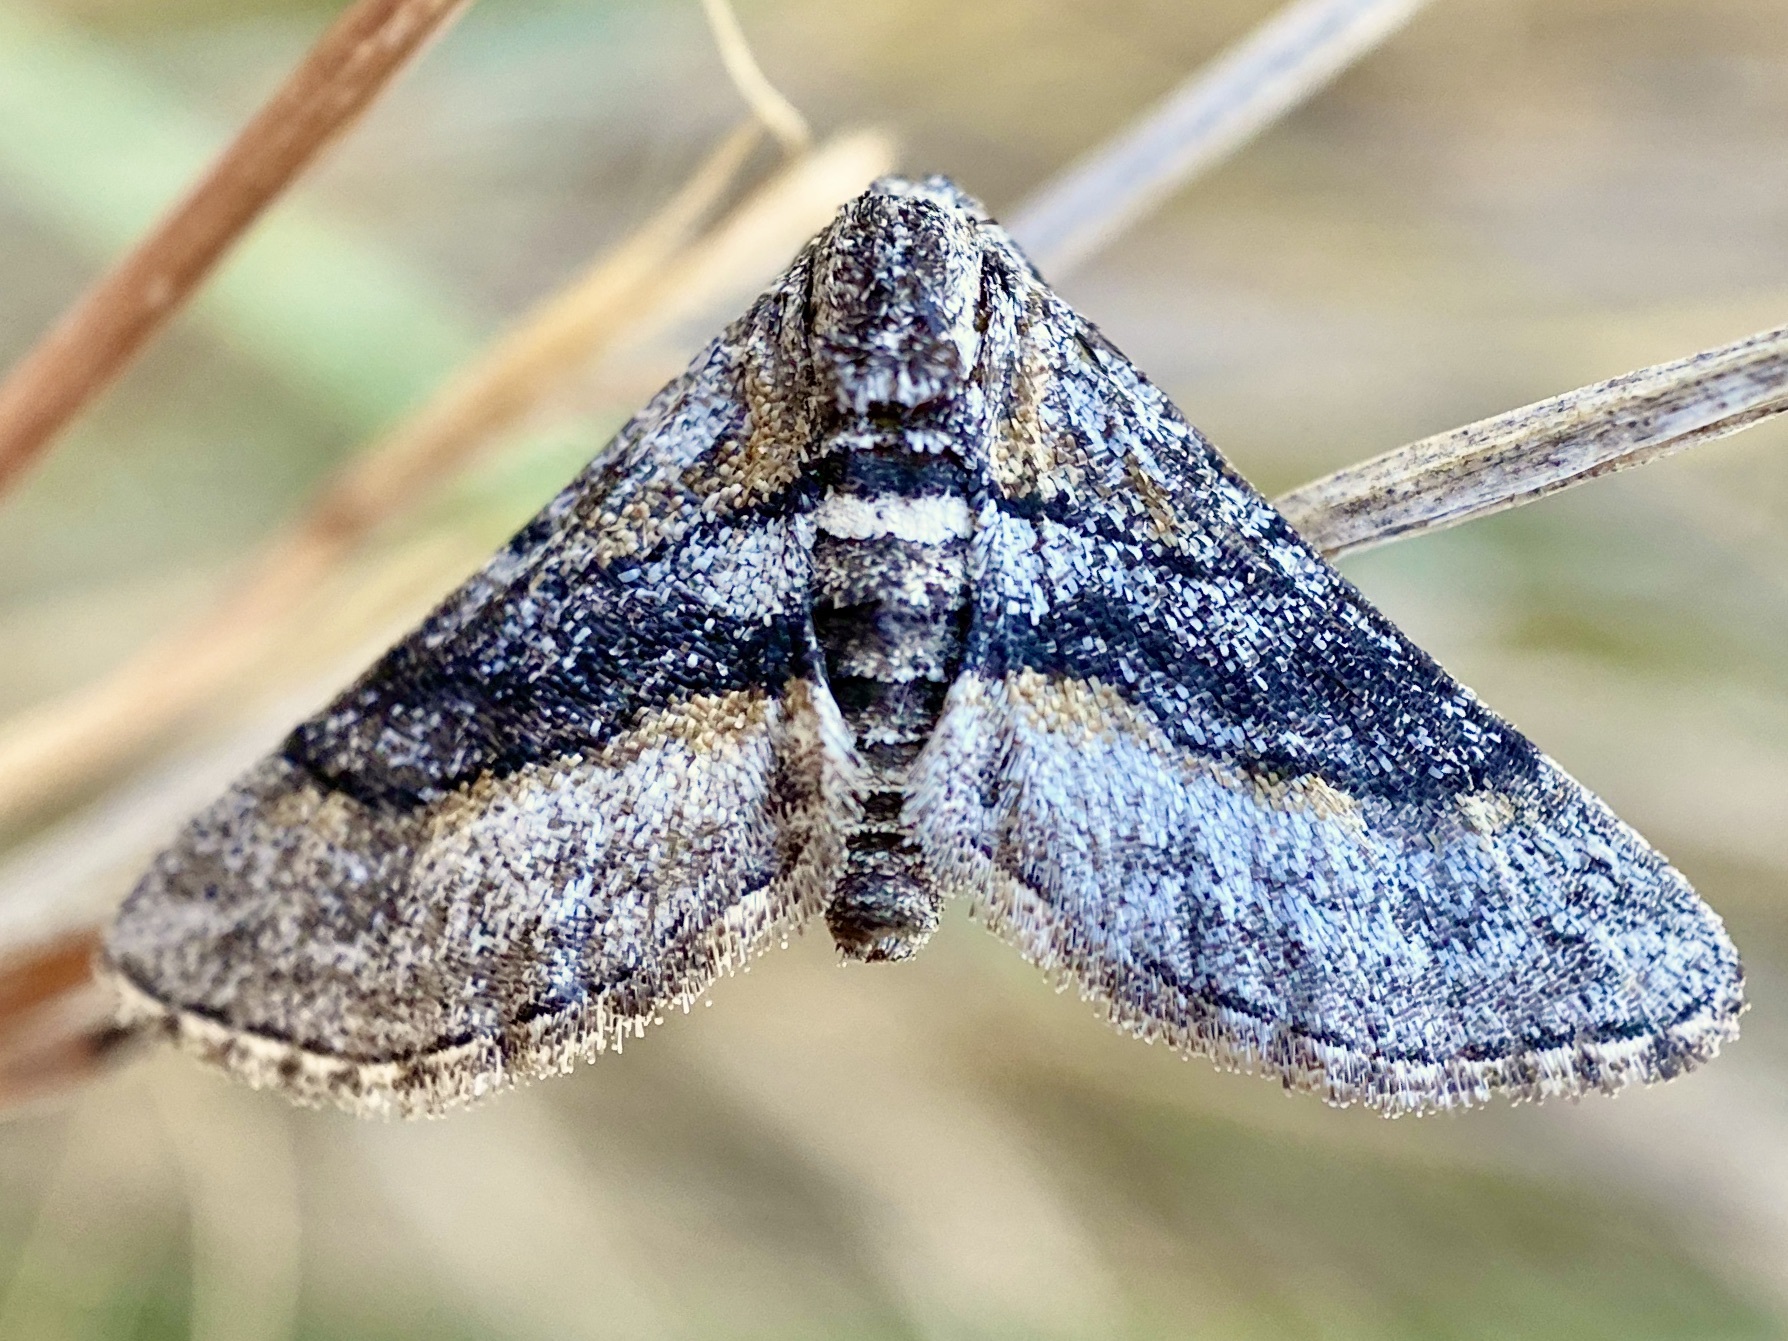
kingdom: Animalia
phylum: Arthropoda
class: Insecta
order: Lepidoptera
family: Geometridae
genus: Eubarnesia
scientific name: Eubarnesia ritaria
